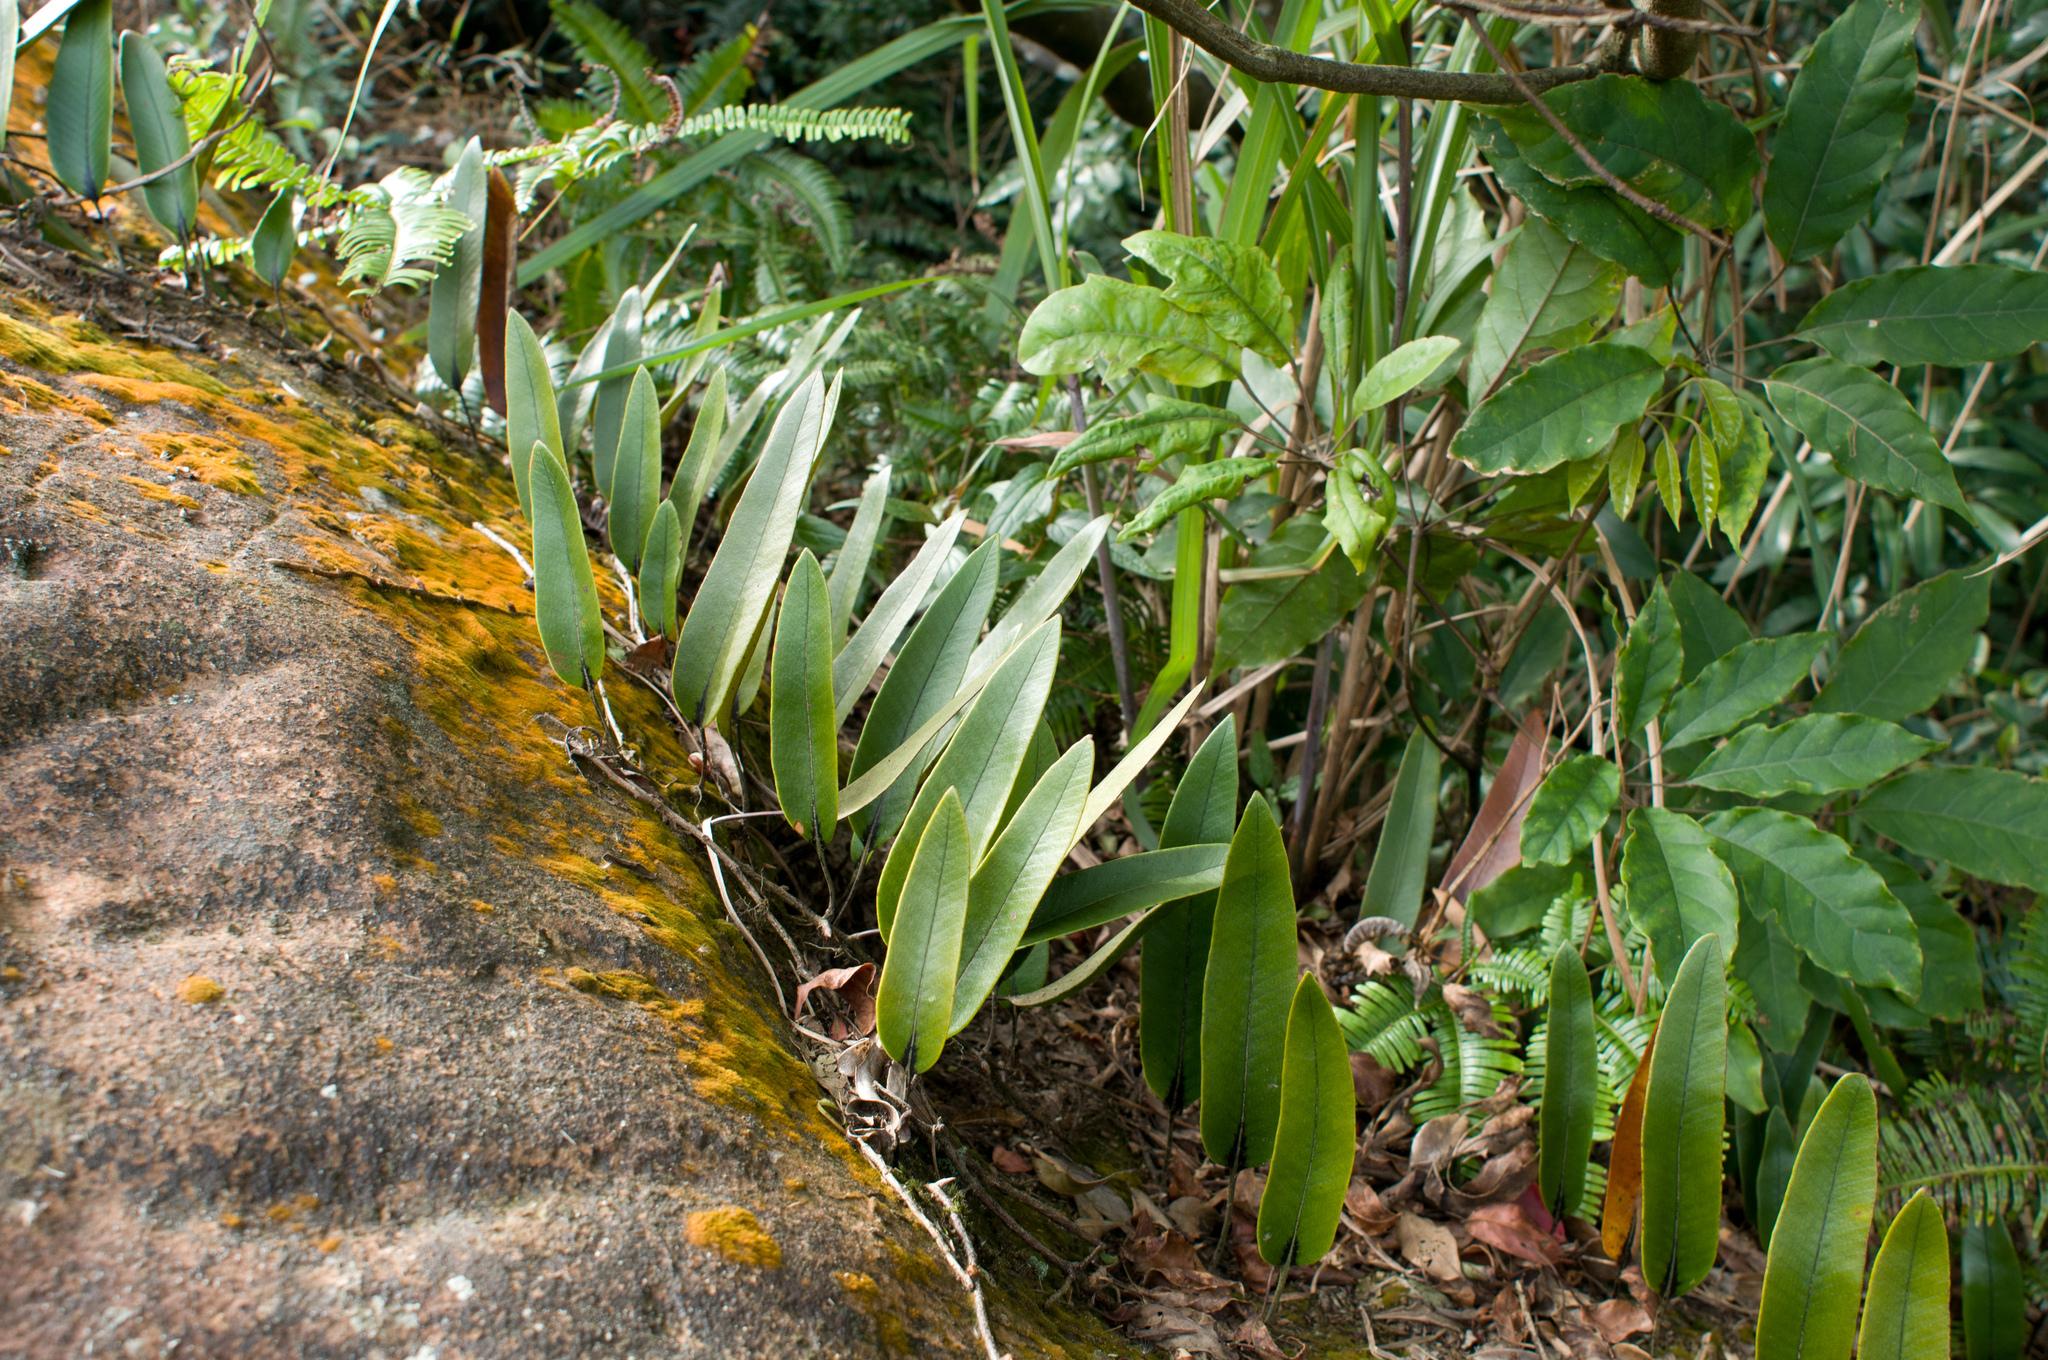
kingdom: Plantae
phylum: Tracheophyta
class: Polypodiopsida
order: Polypodiales
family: Polypodiaceae
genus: Pyrrosia
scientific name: Pyrrosia lingua
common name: Felt fern
